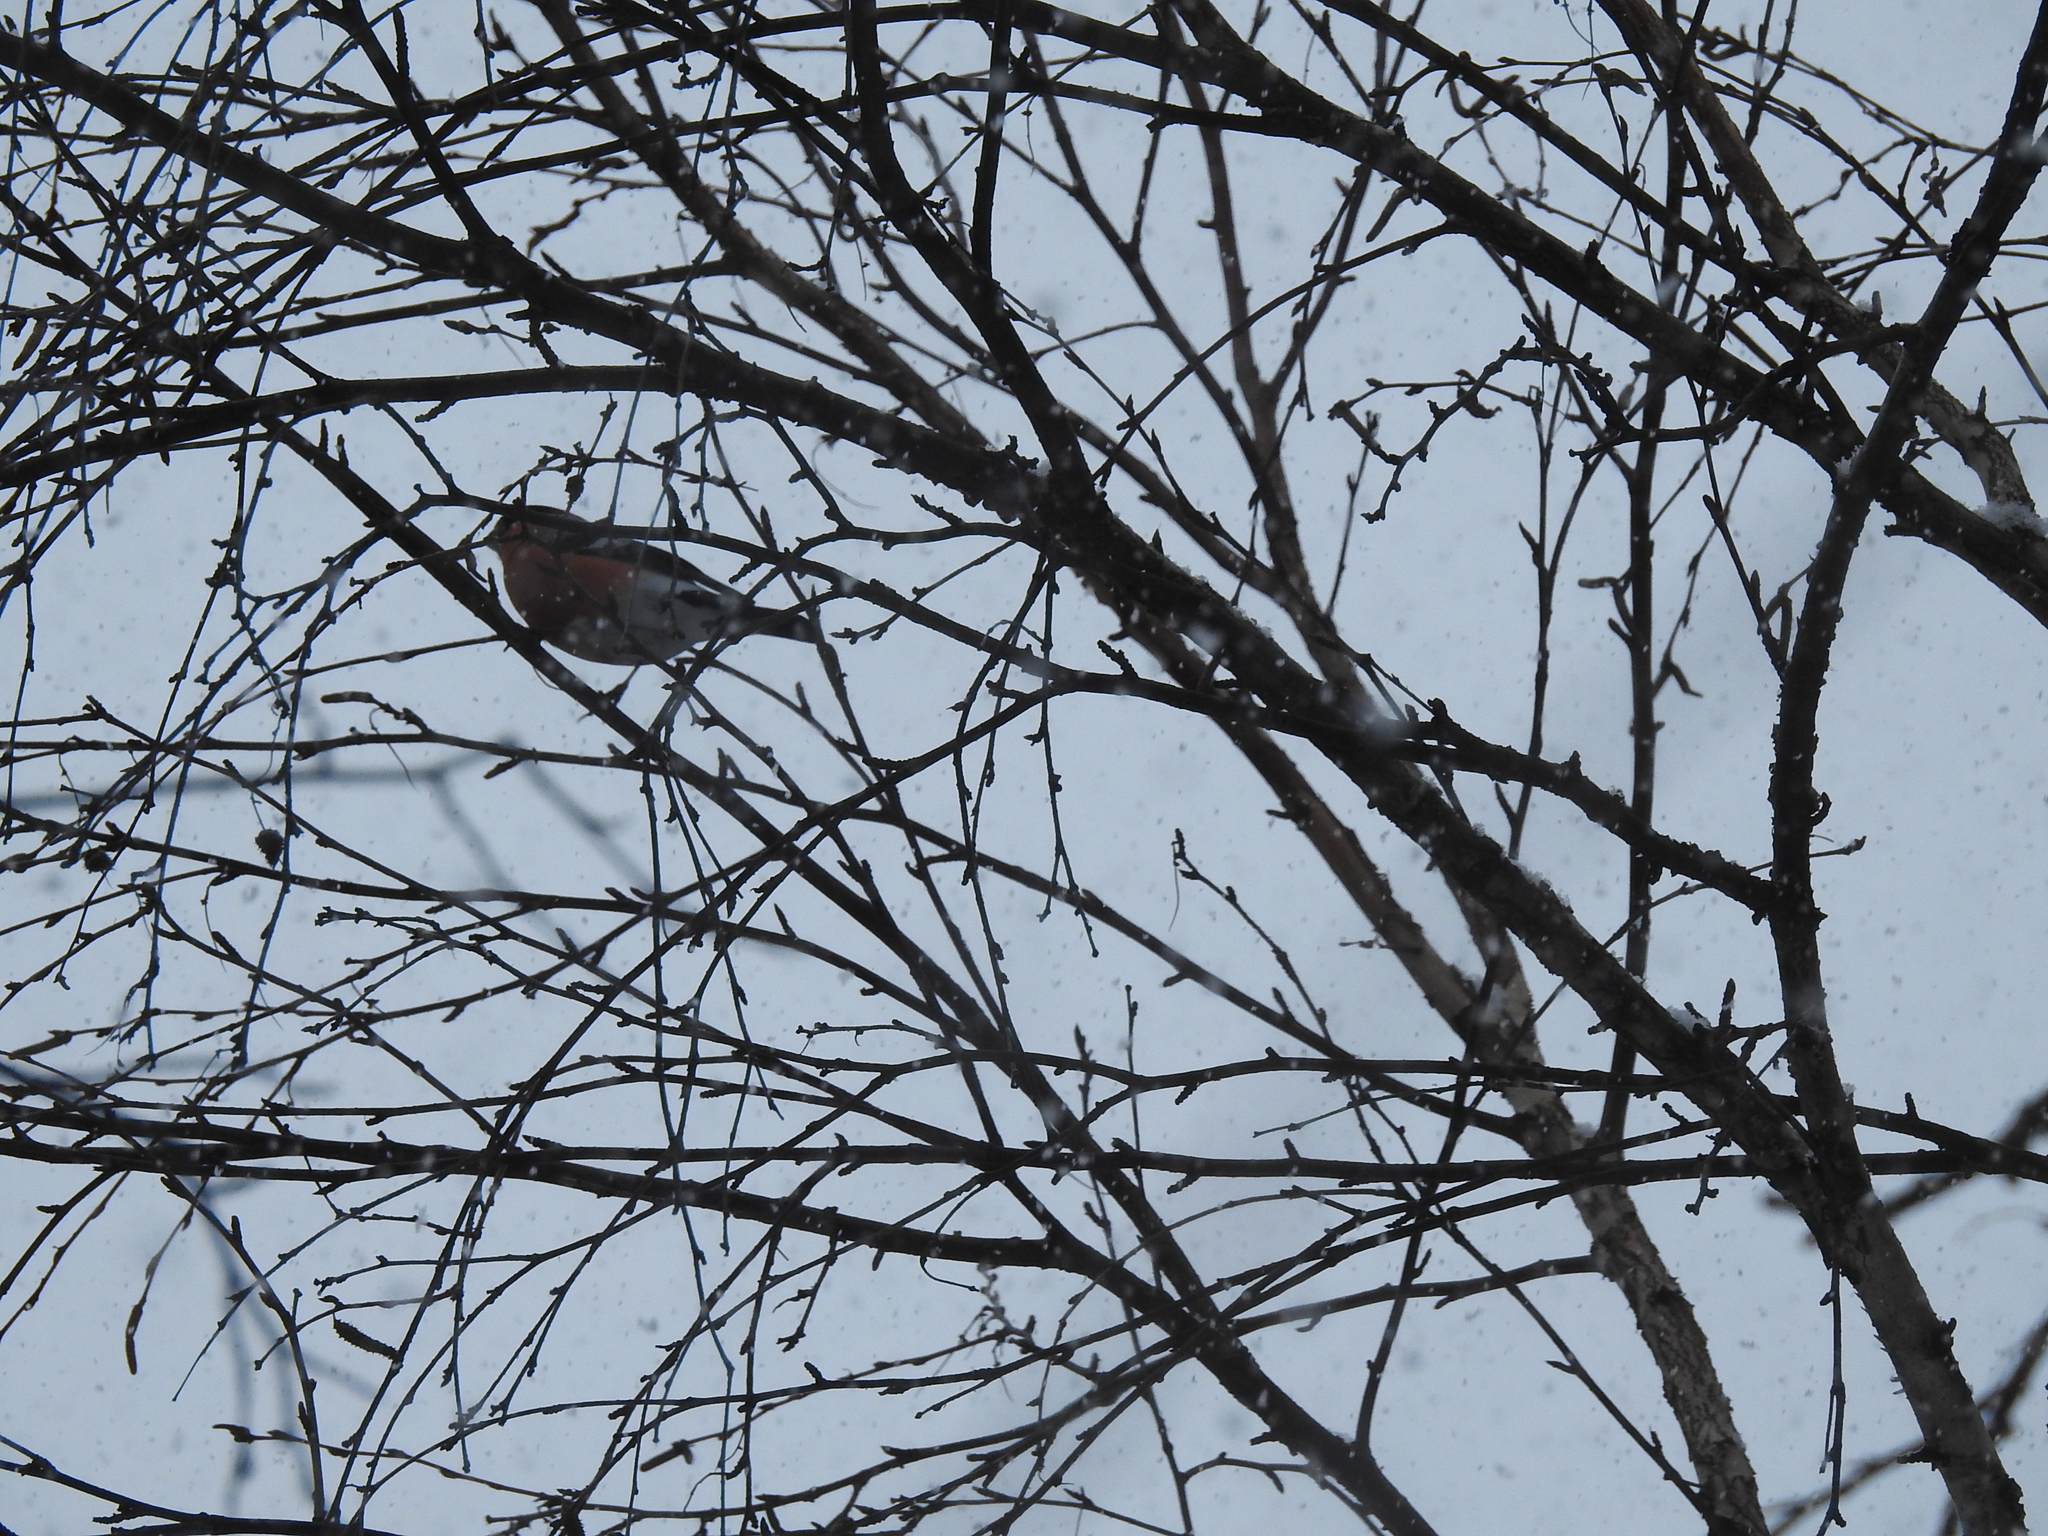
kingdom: Animalia
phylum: Chordata
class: Aves
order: Passeriformes
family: Fringillidae
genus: Pyrrhula
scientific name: Pyrrhula pyrrhula
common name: Eurasian bullfinch
